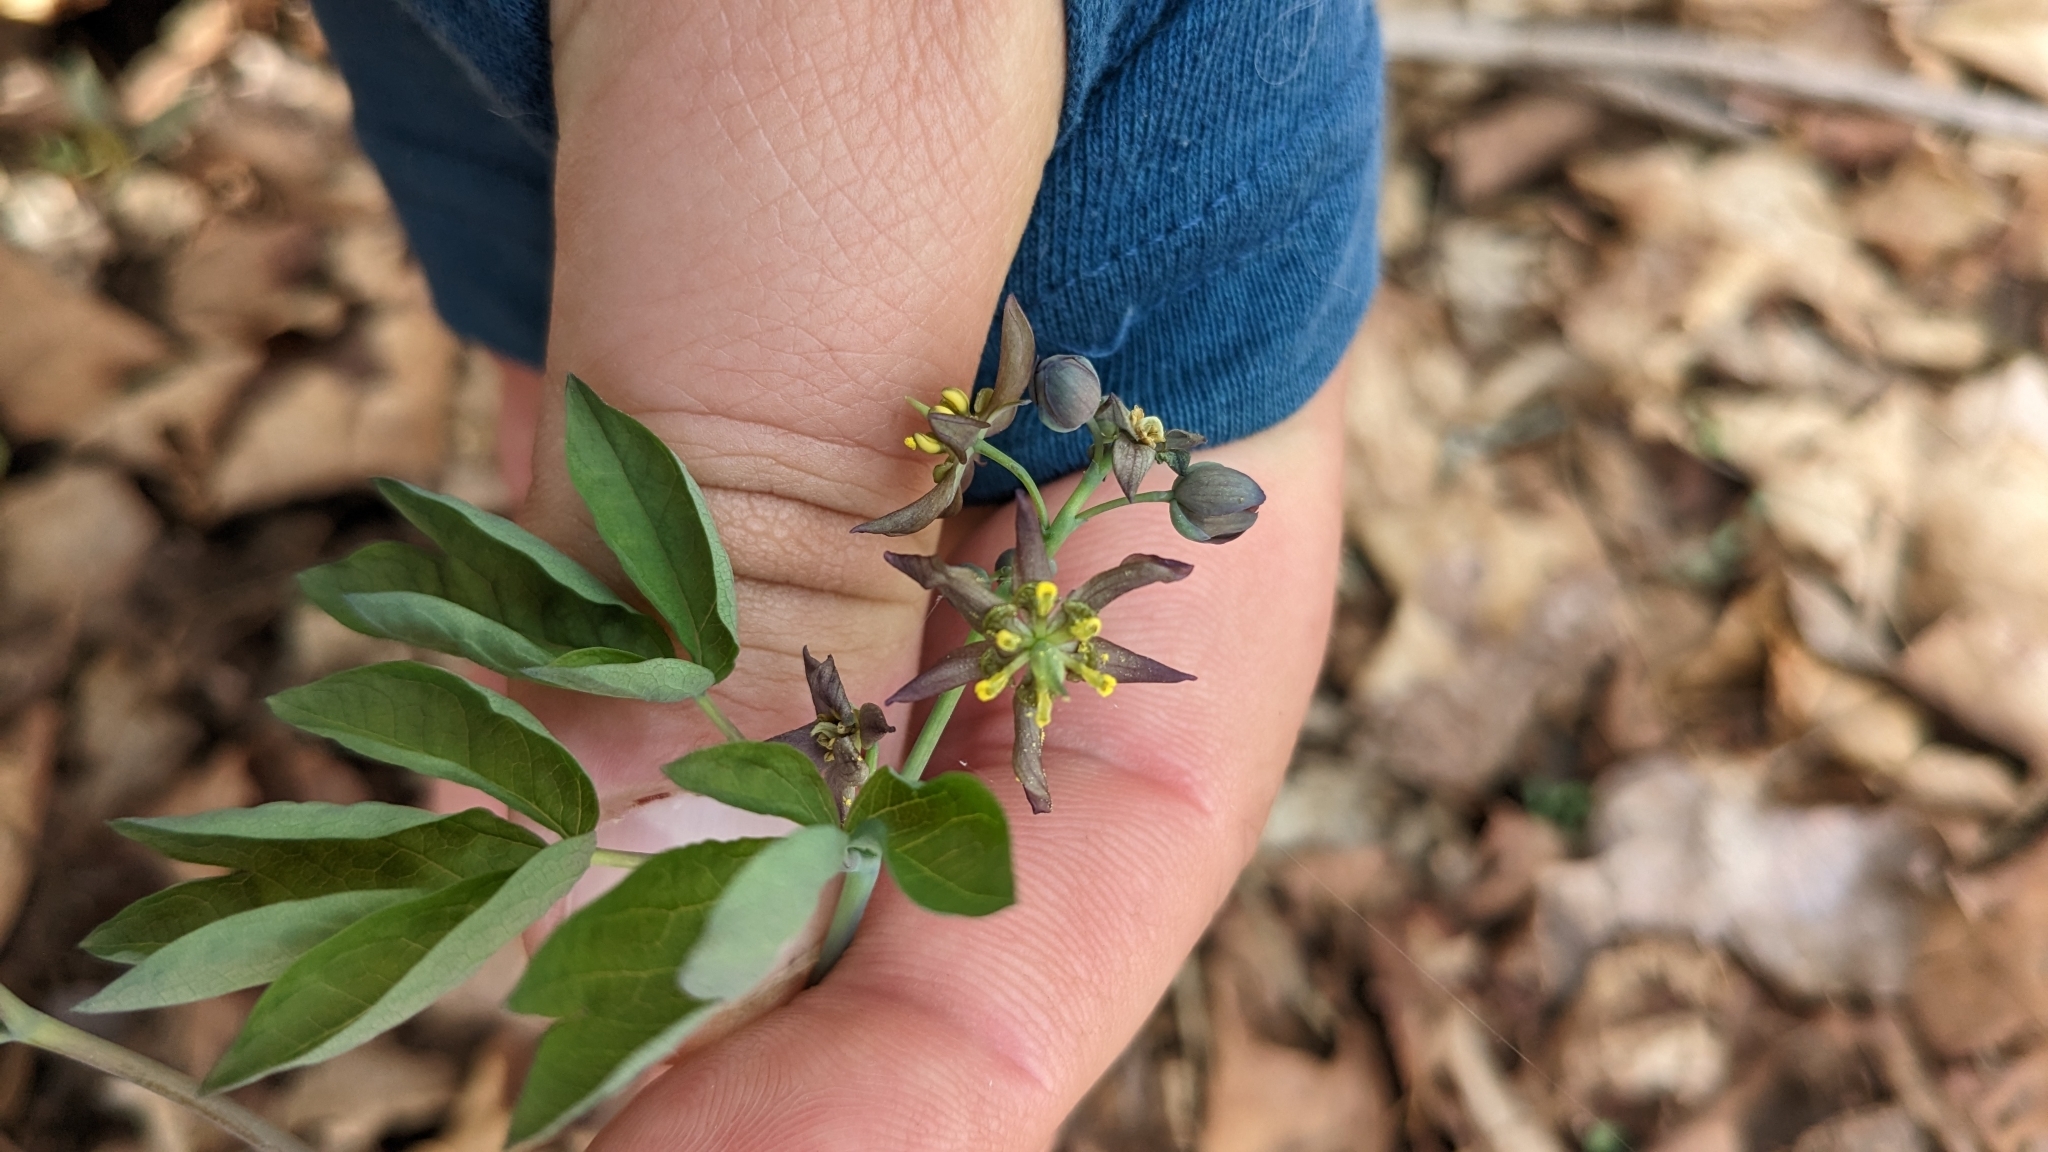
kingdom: Plantae
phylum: Tracheophyta
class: Magnoliopsida
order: Ranunculales
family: Berberidaceae
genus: Caulophyllum
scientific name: Caulophyllum giganteum
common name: Blue cohosh
